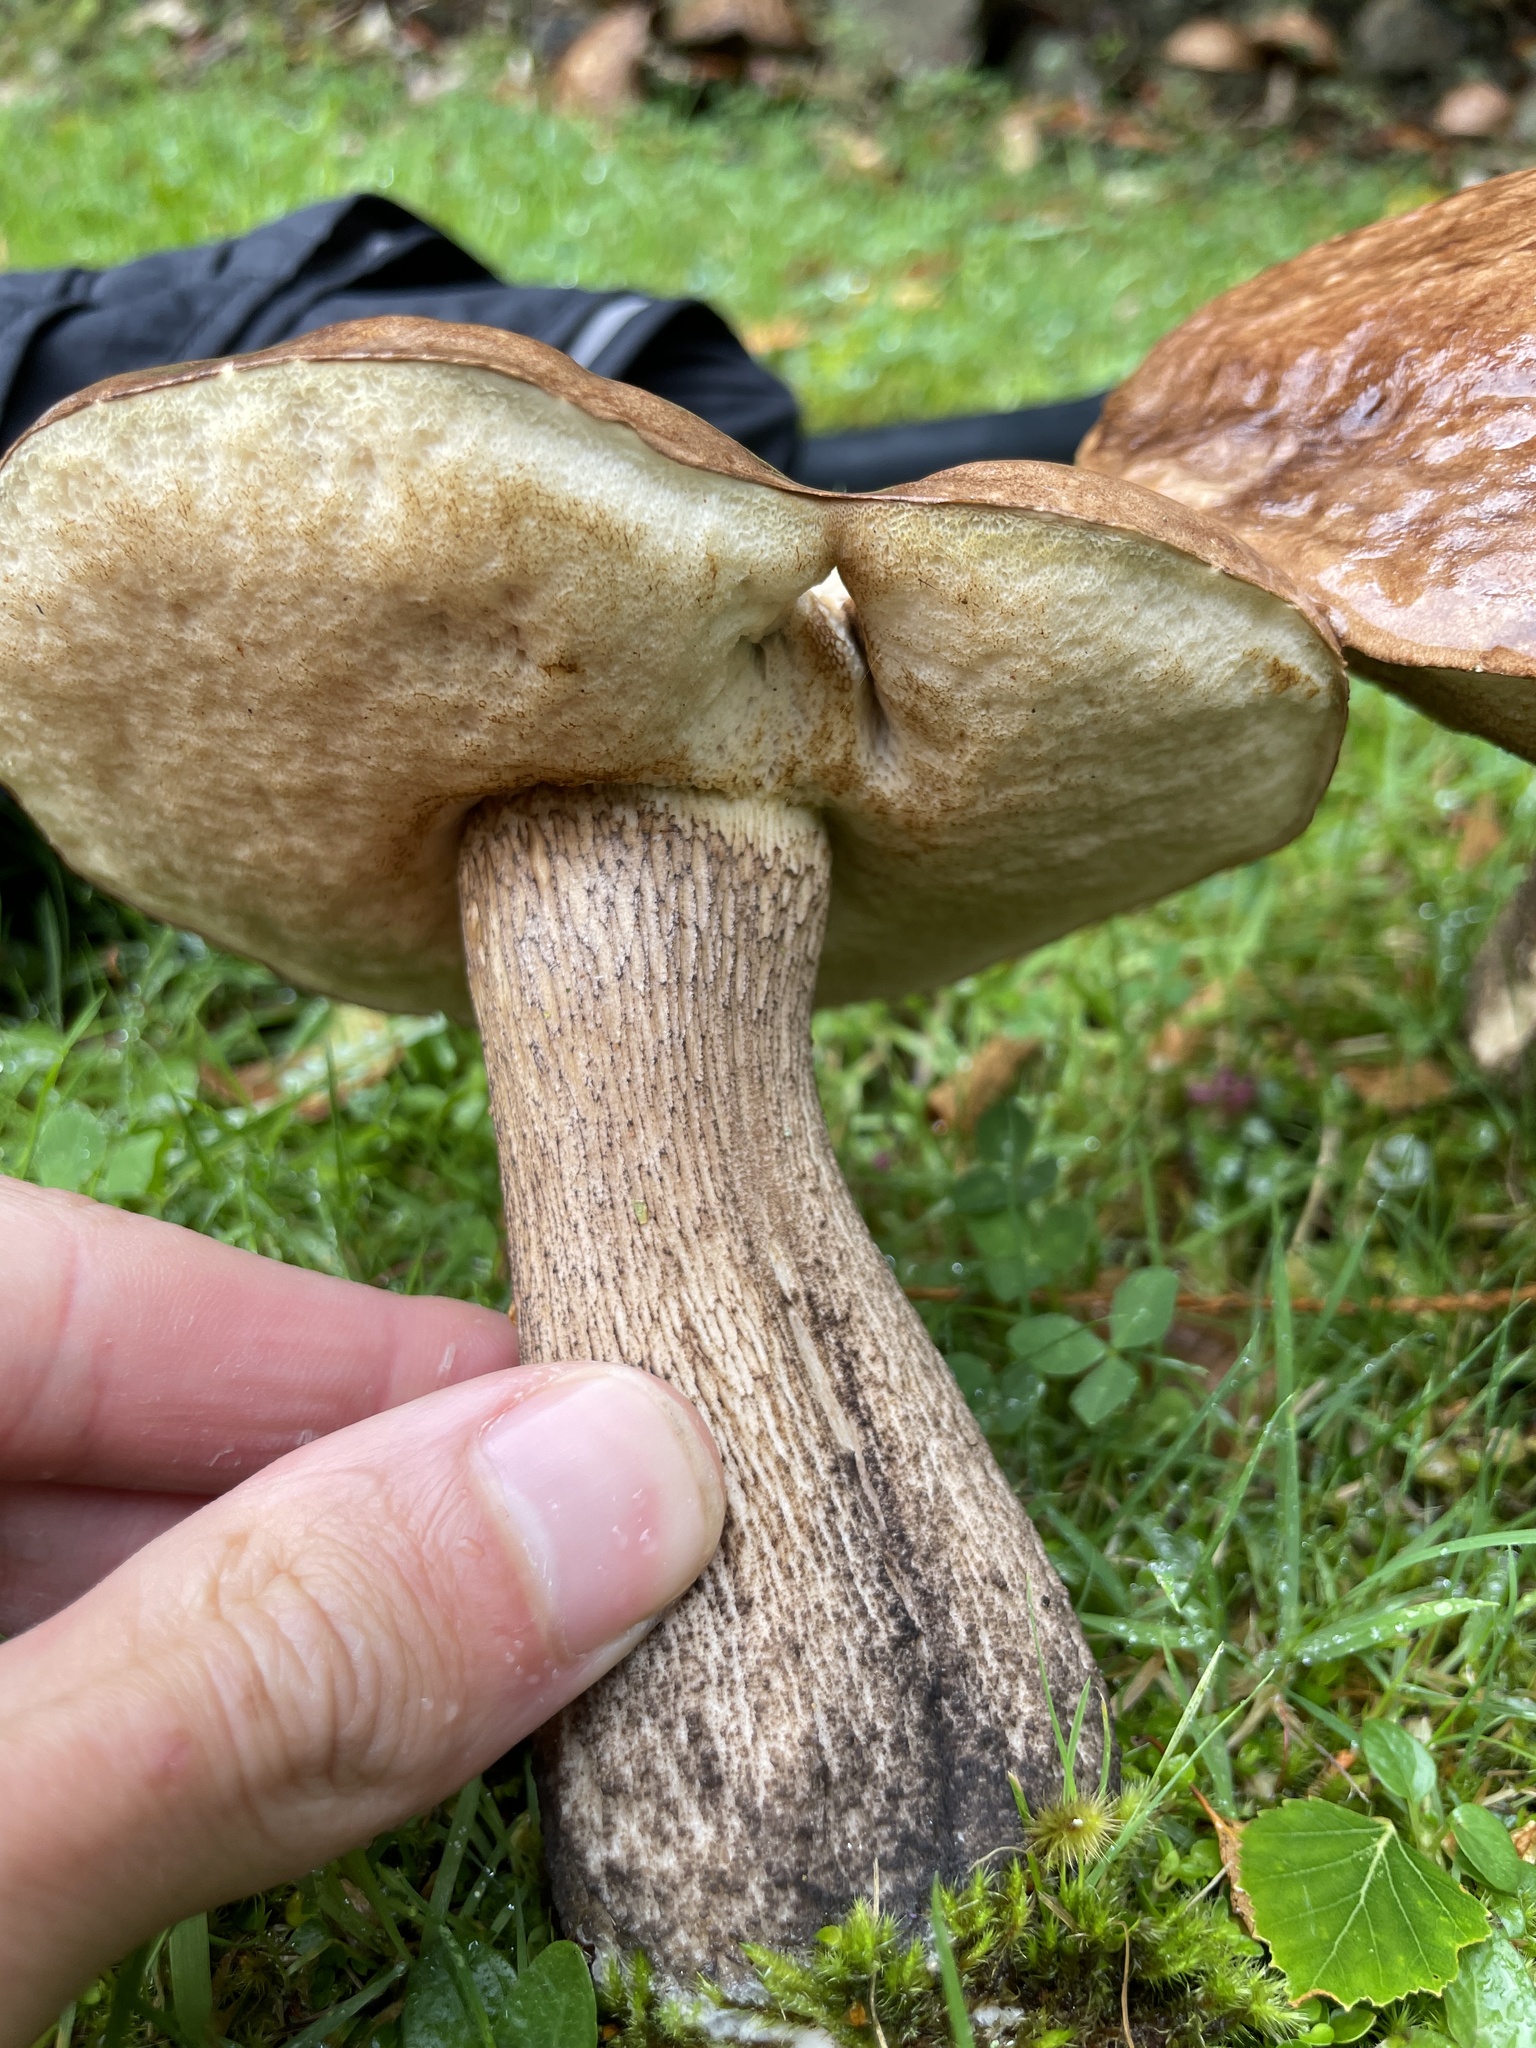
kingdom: Fungi
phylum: Basidiomycota
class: Agaricomycetes
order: Boletales
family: Boletaceae
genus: Leccinum
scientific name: Leccinum scabrum
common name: Blushing bolete
